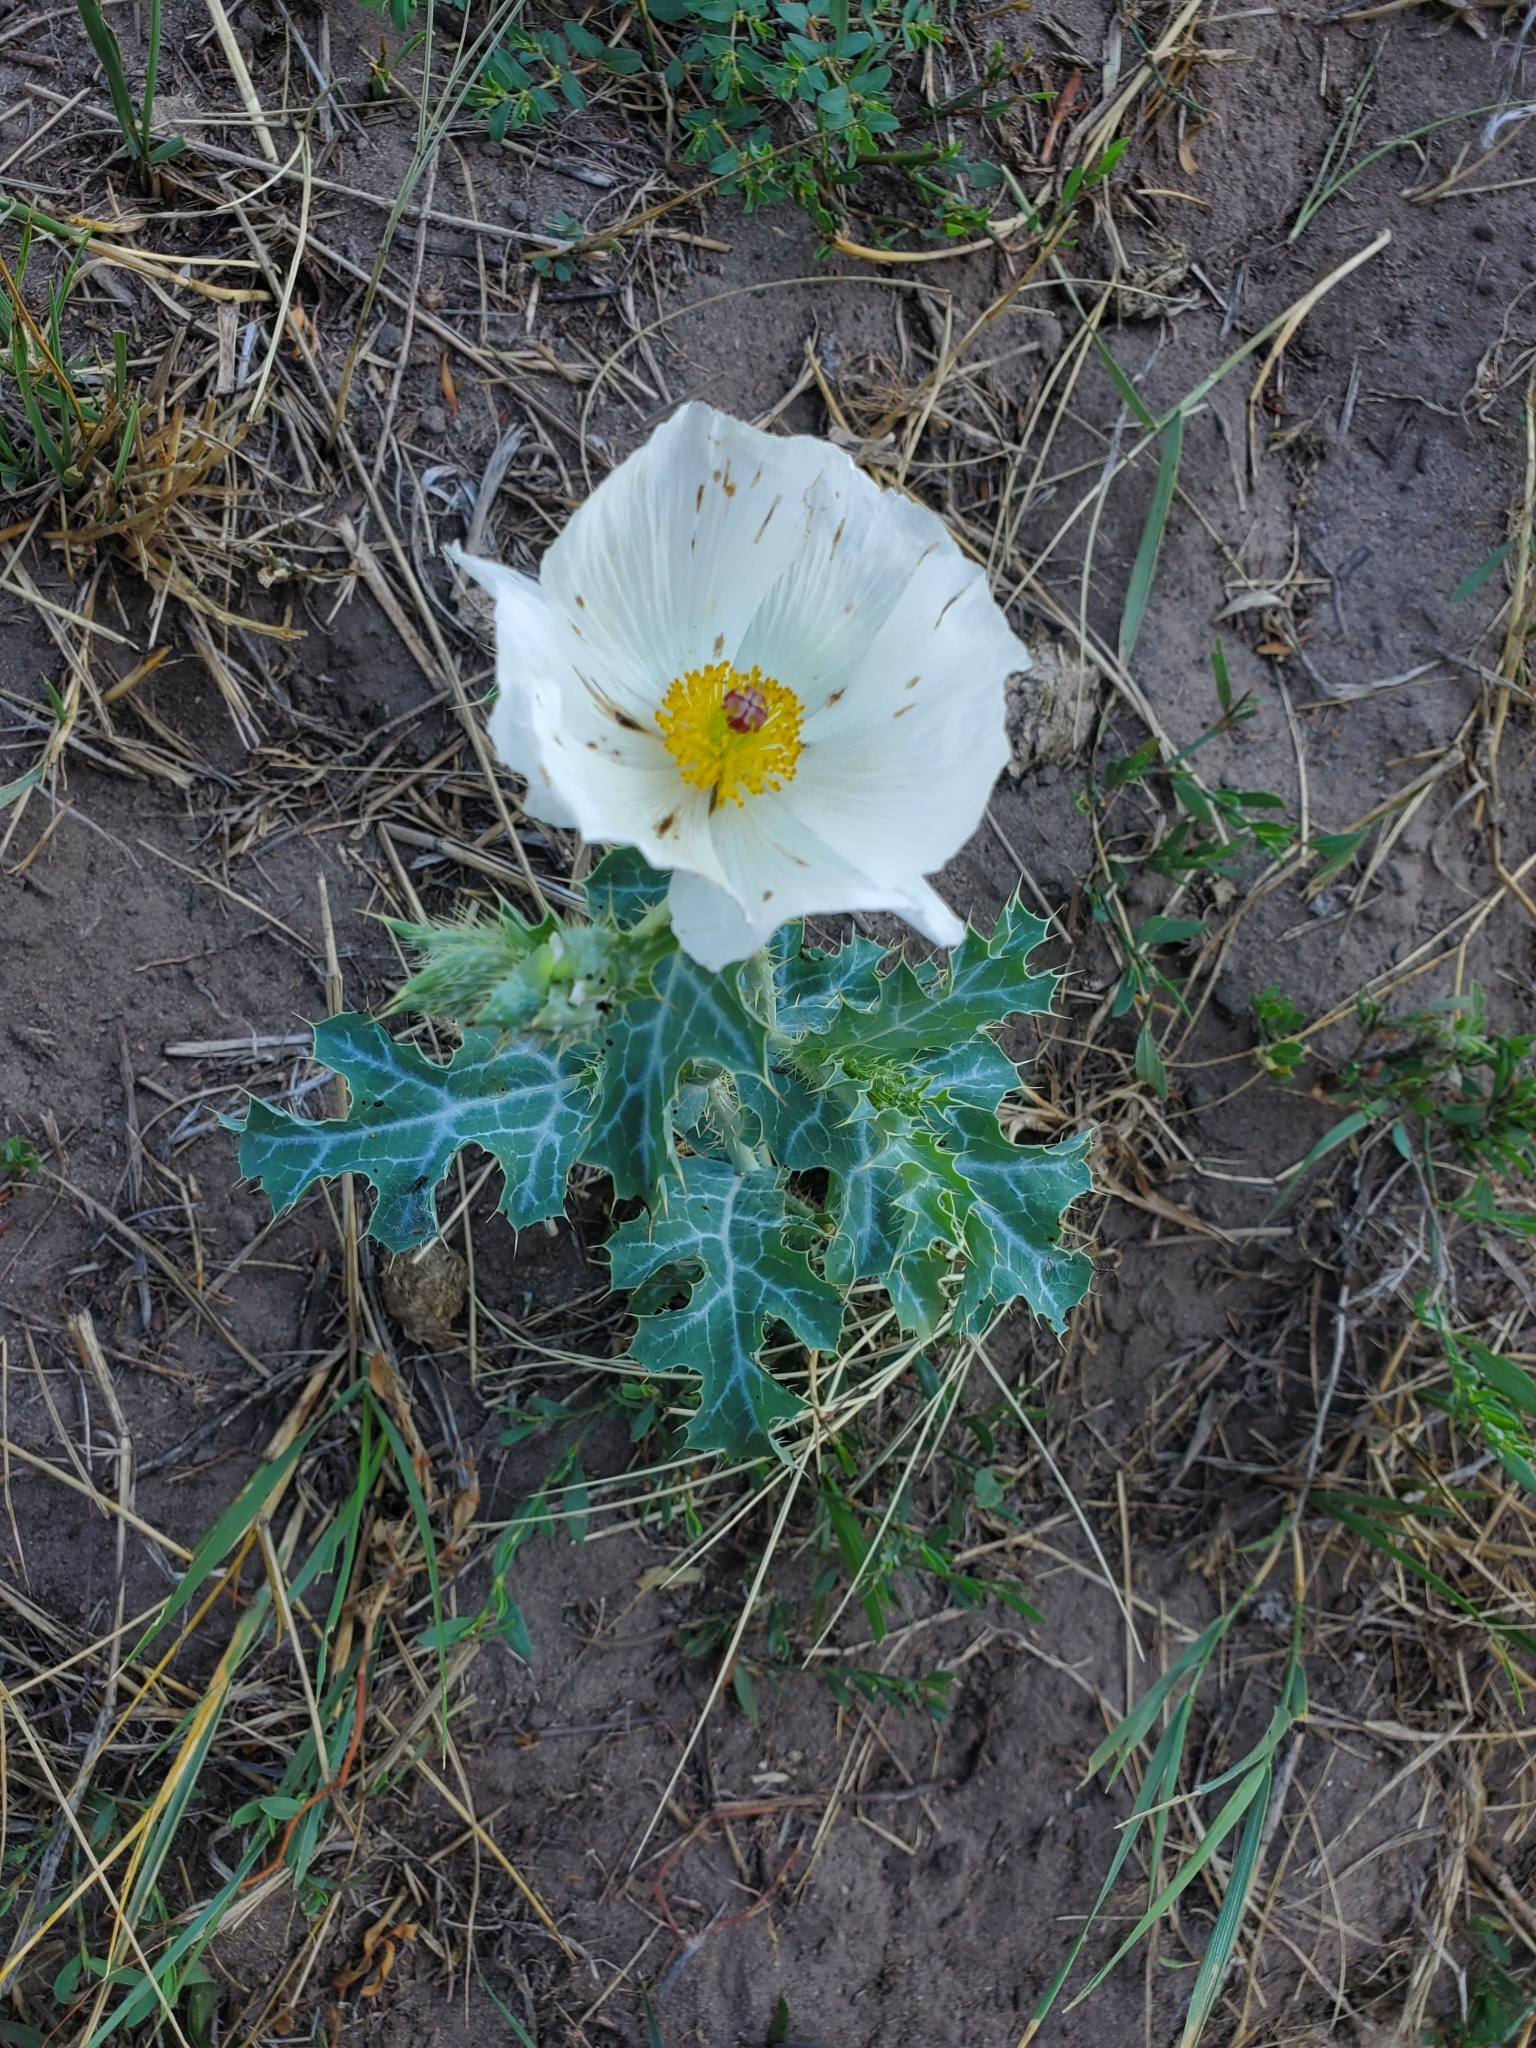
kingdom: Plantae
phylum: Tracheophyta
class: Magnoliopsida
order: Ranunculales
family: Papaveraceae
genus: Argemone
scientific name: Argemone polyanthemos
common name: Plains prickly-poppy
